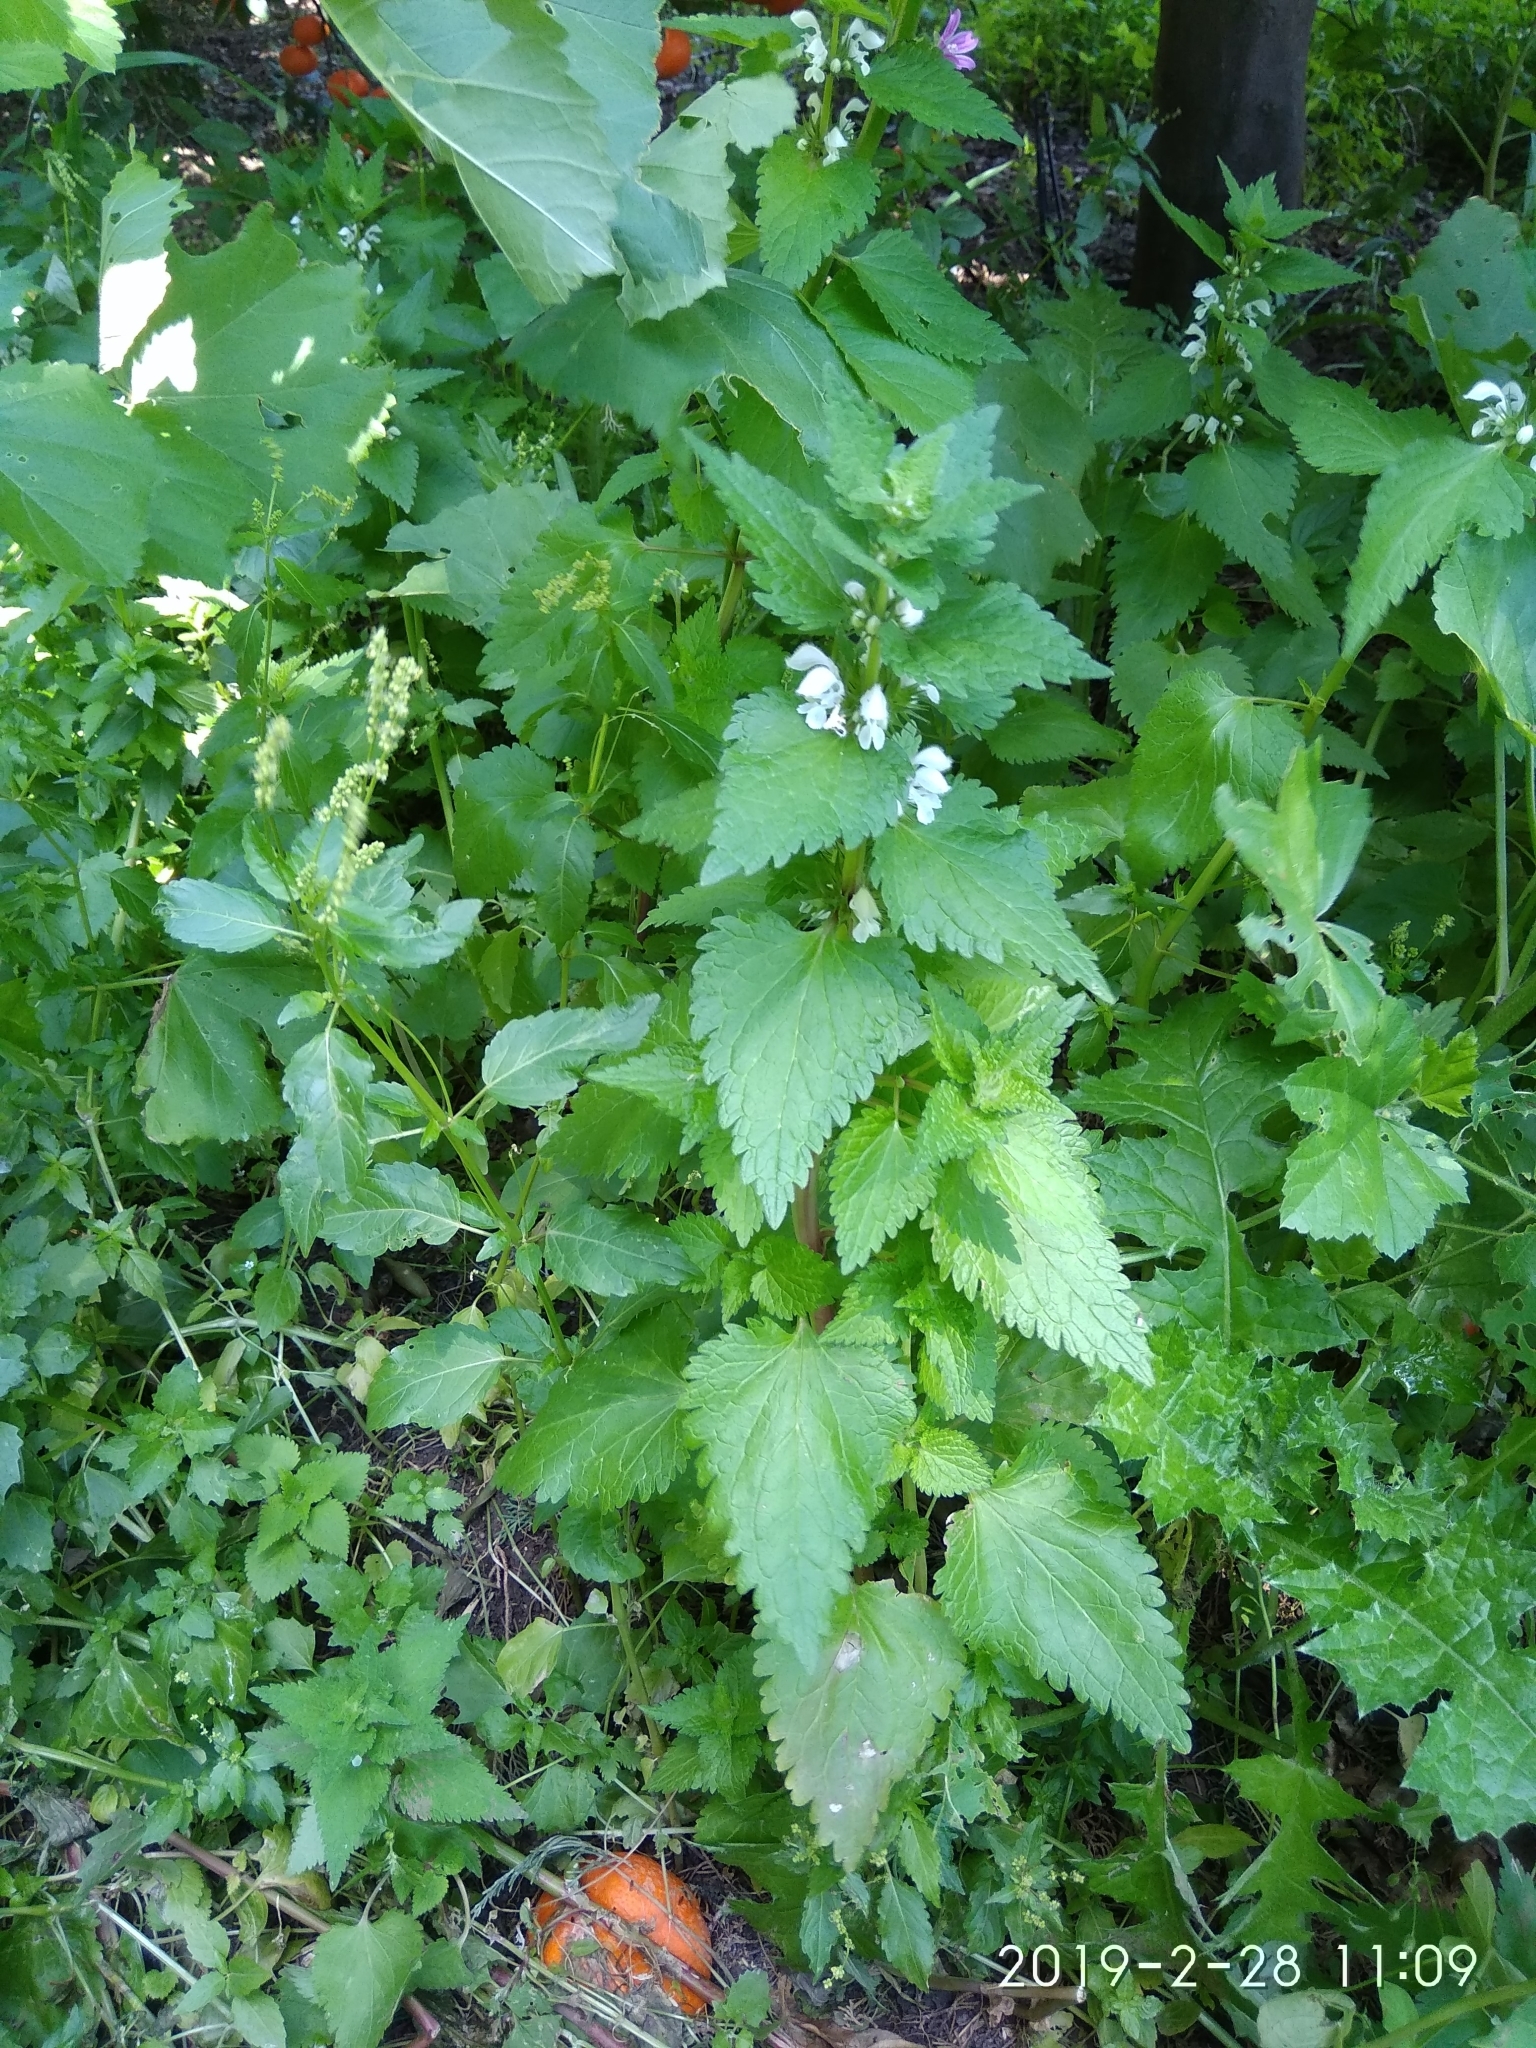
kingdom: Plantae
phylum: Tracheophyta
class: Magnoliopsida
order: Lamiales
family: Lamiaceae
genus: Lamium
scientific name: Lamium moschatum
